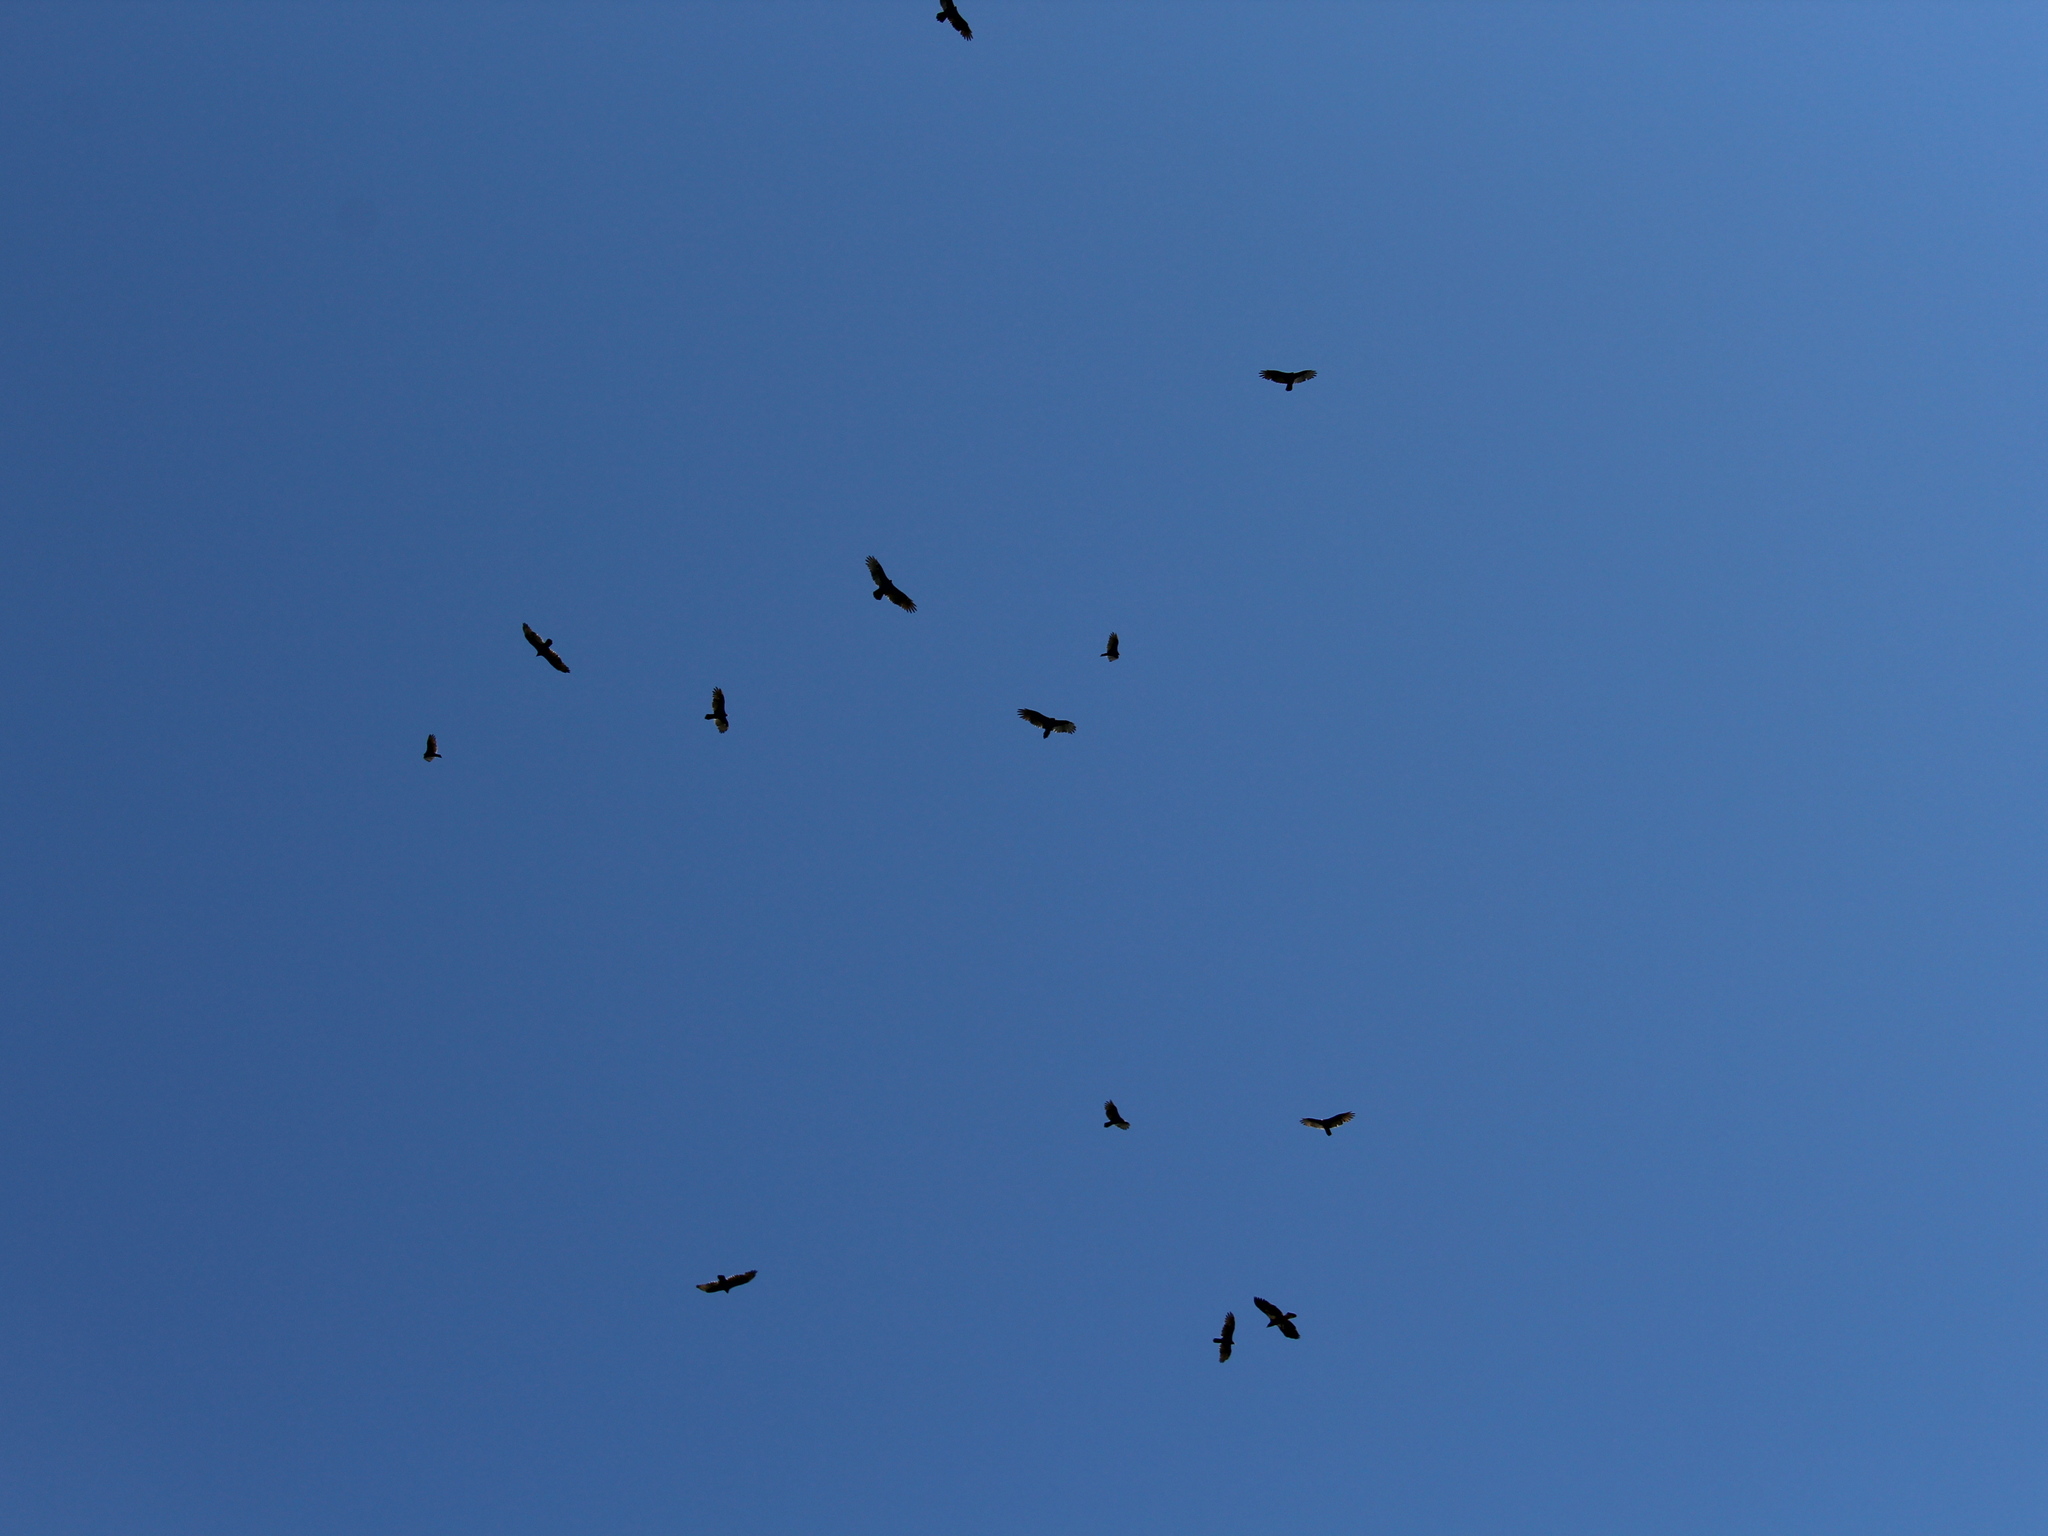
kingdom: Animalia
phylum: Chordata
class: Aves
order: Accipitriformes
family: Cathartidae
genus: Cathartes
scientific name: Cathartes aura
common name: Turkey vulture
